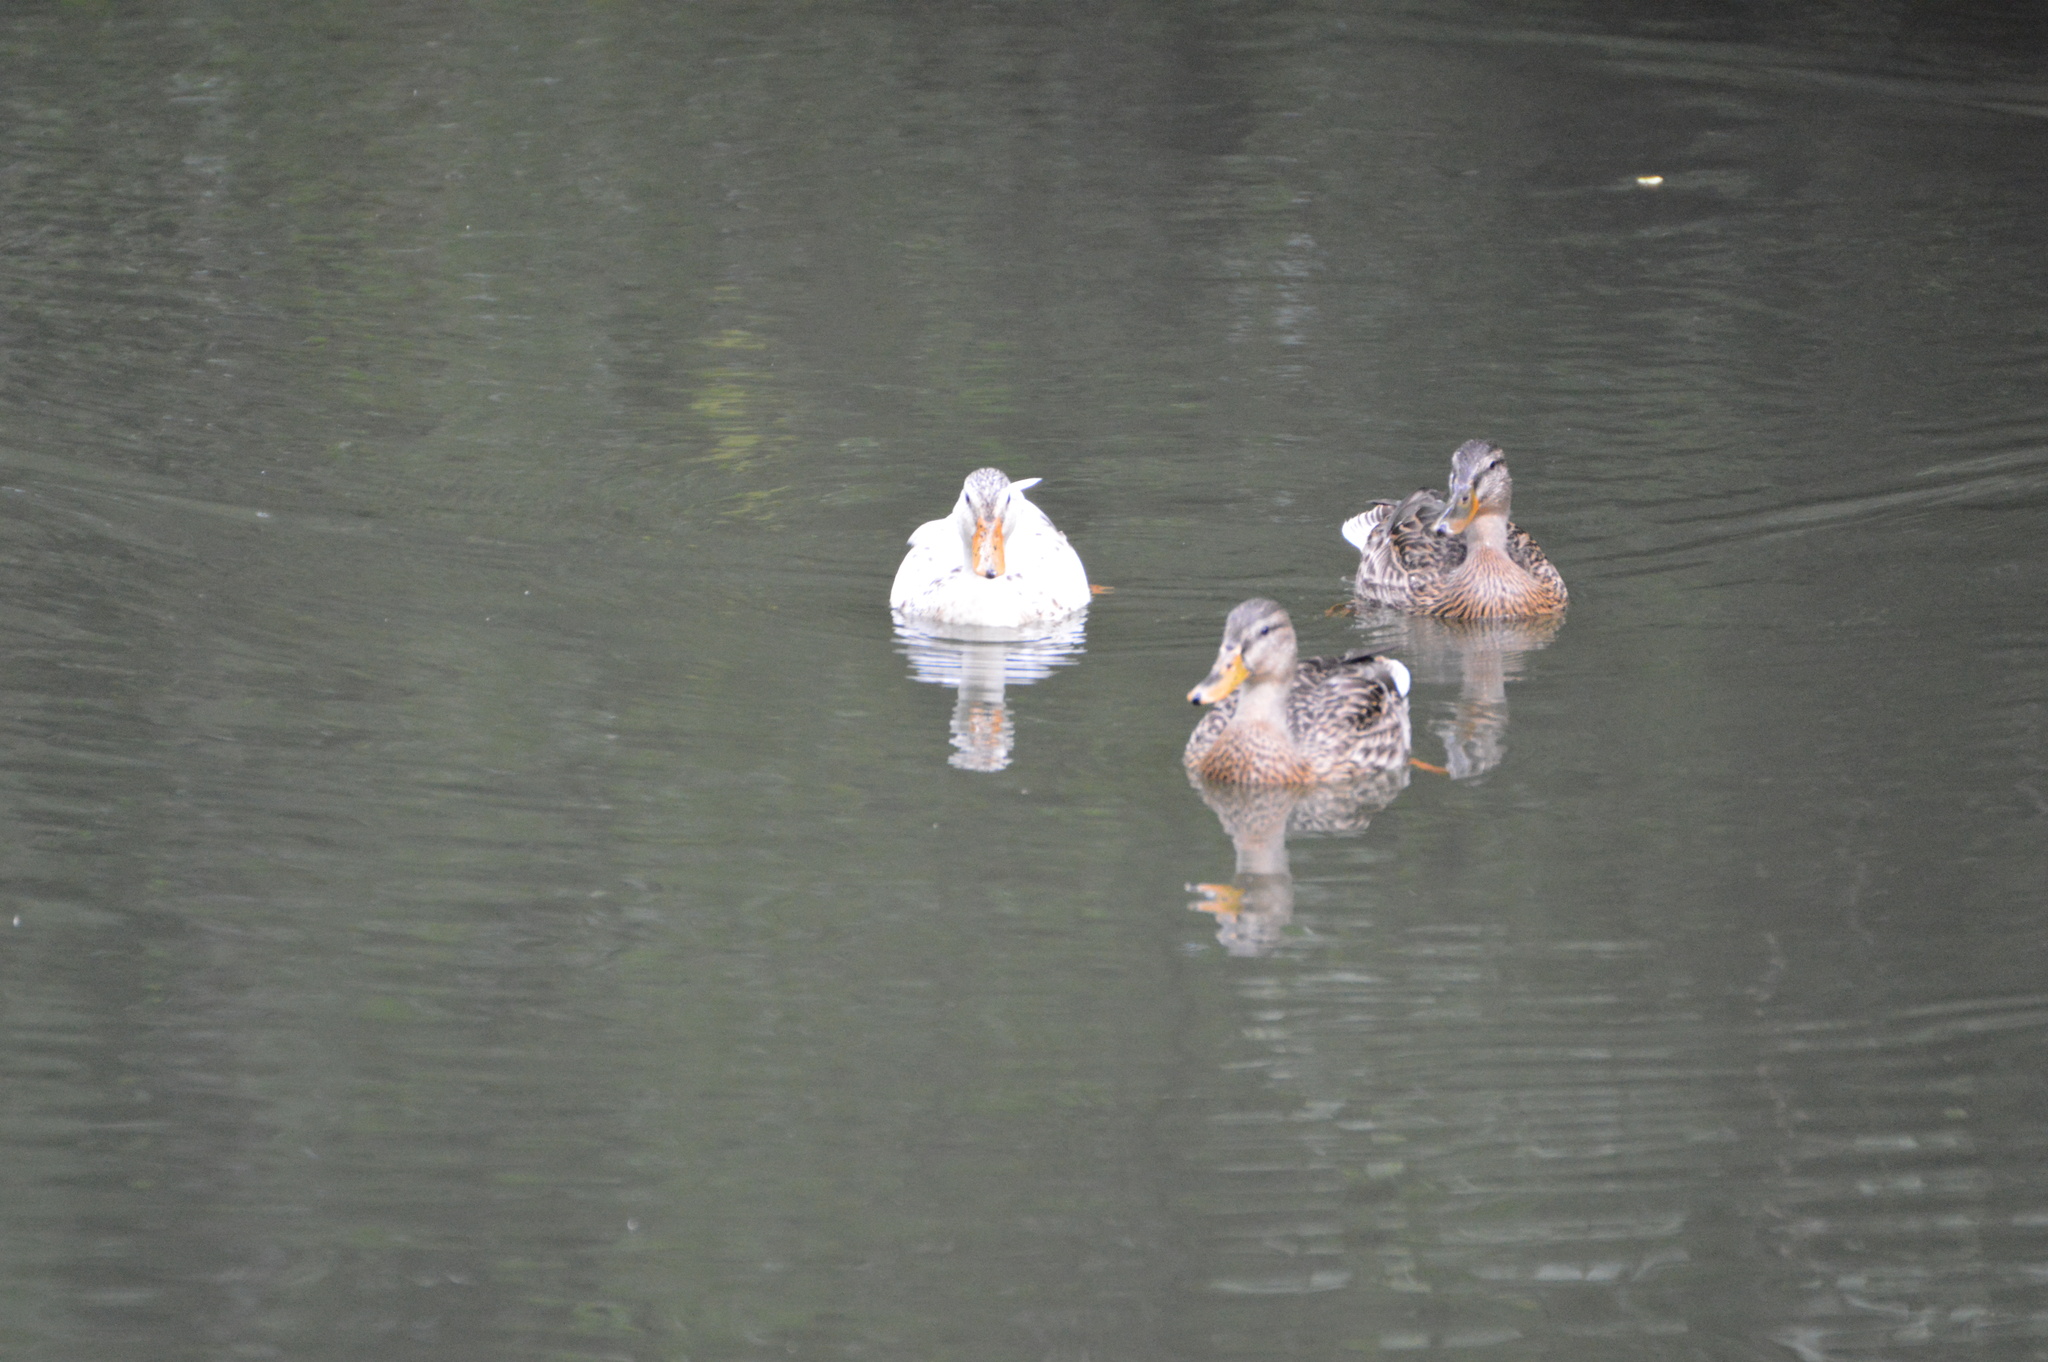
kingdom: Animalia
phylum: Chordata
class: Aves
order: Anseriformes
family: Anatidae
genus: Anas
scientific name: Anas platyrhynchos
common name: Mallard
